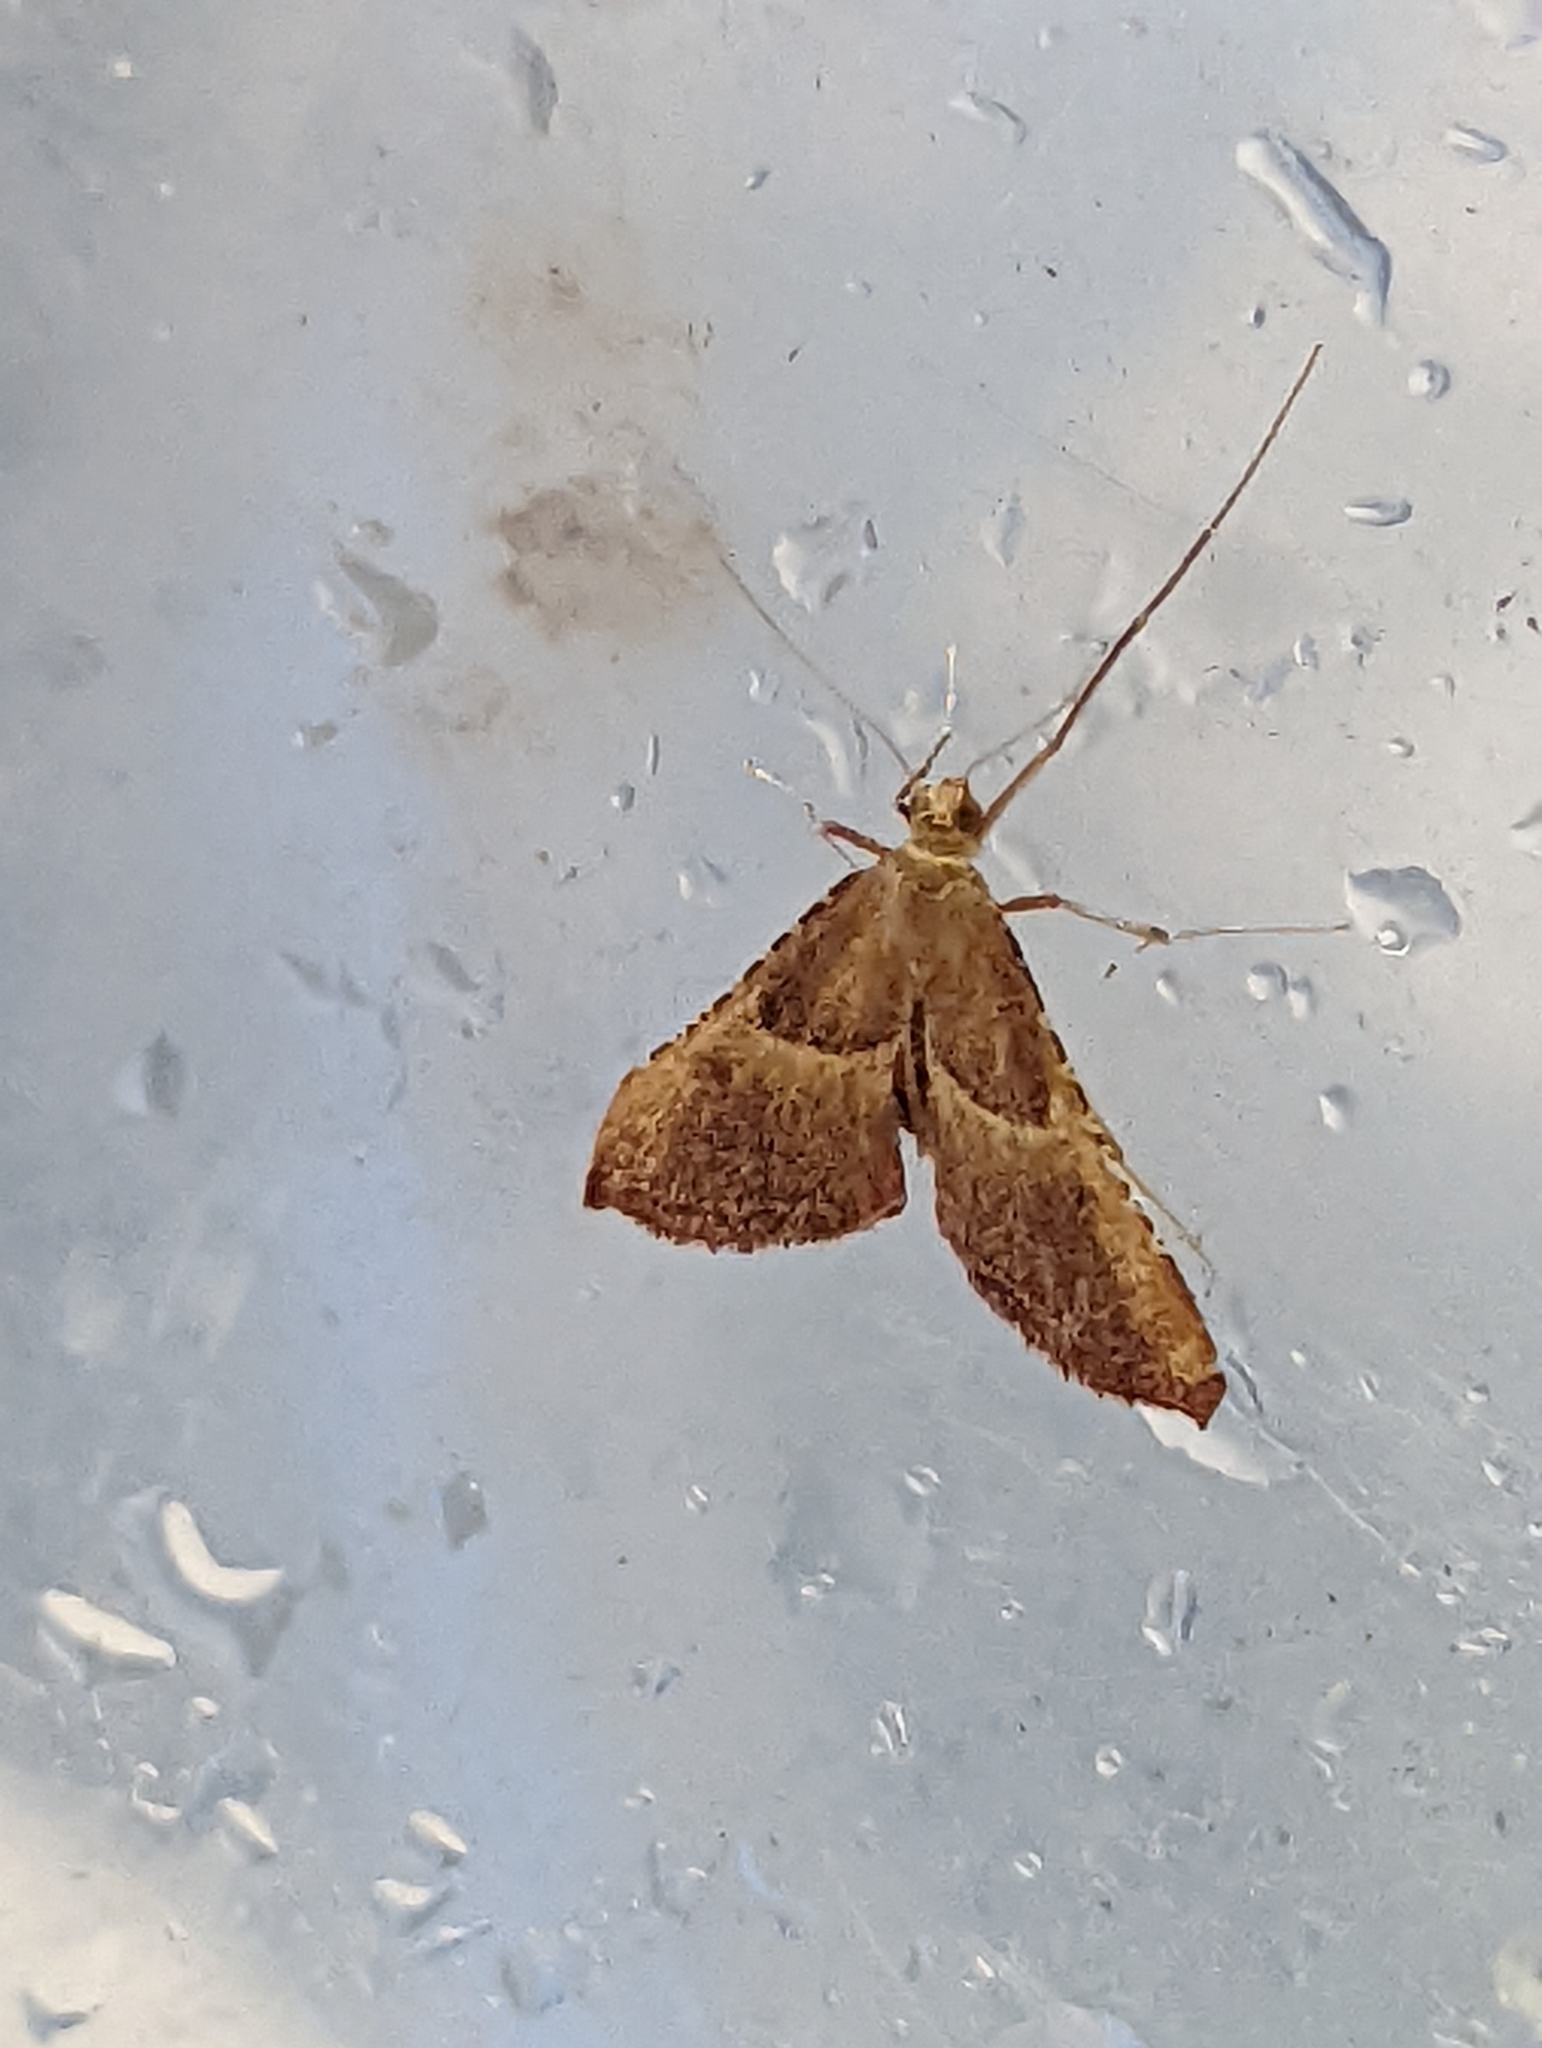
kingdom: Animalia
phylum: Arthropoda
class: Insecta
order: Lepidoptera
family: Pyralidae
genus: Endotricha
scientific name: Endotricha flammealis
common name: Rosy tabby
